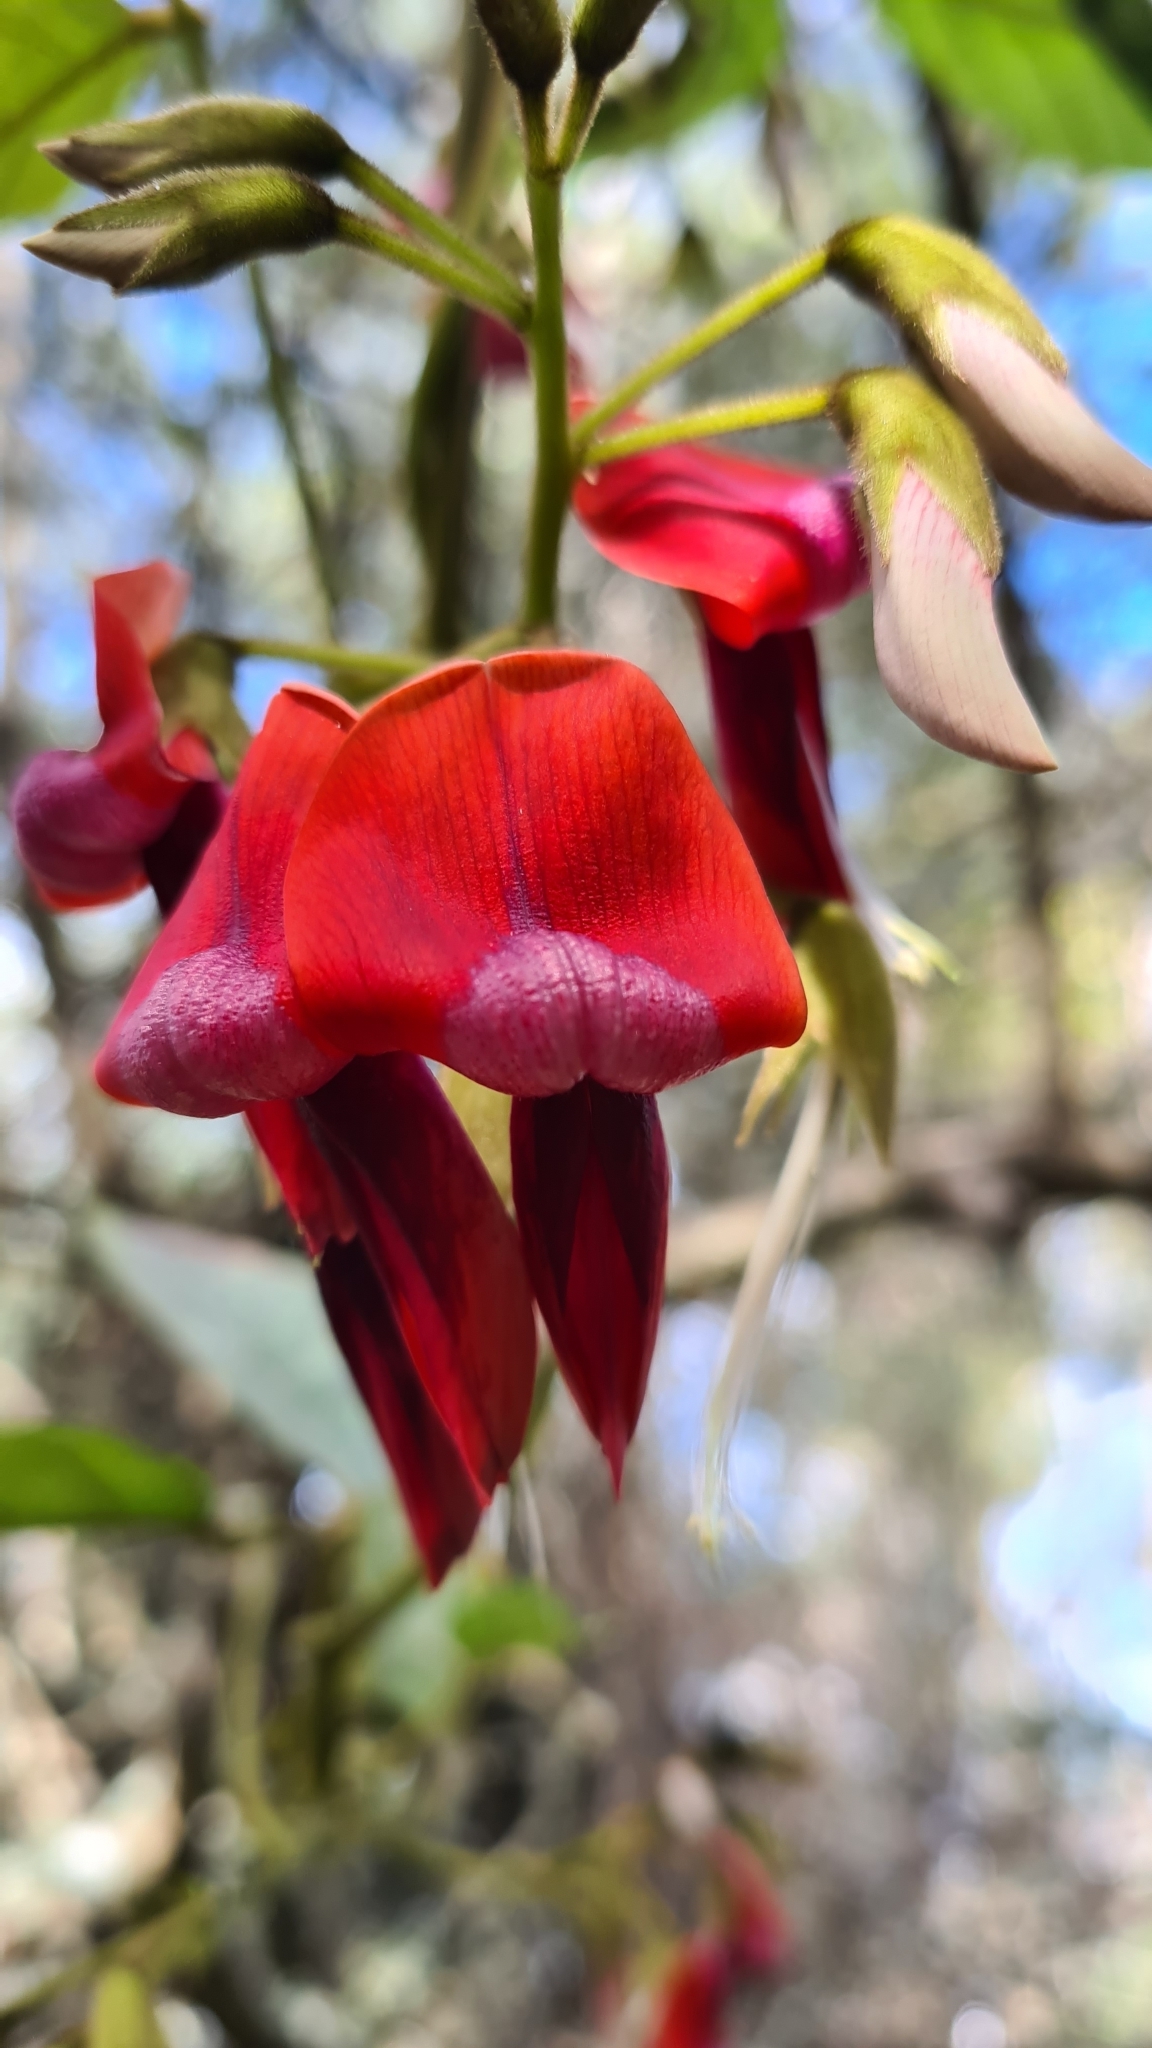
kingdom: Plantae
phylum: Tracheophyta
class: Magnoliopsida
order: Fabales
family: Fabaceae
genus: Kennedia
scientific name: Kennedia rubicunda
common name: Red kennedy-pea
